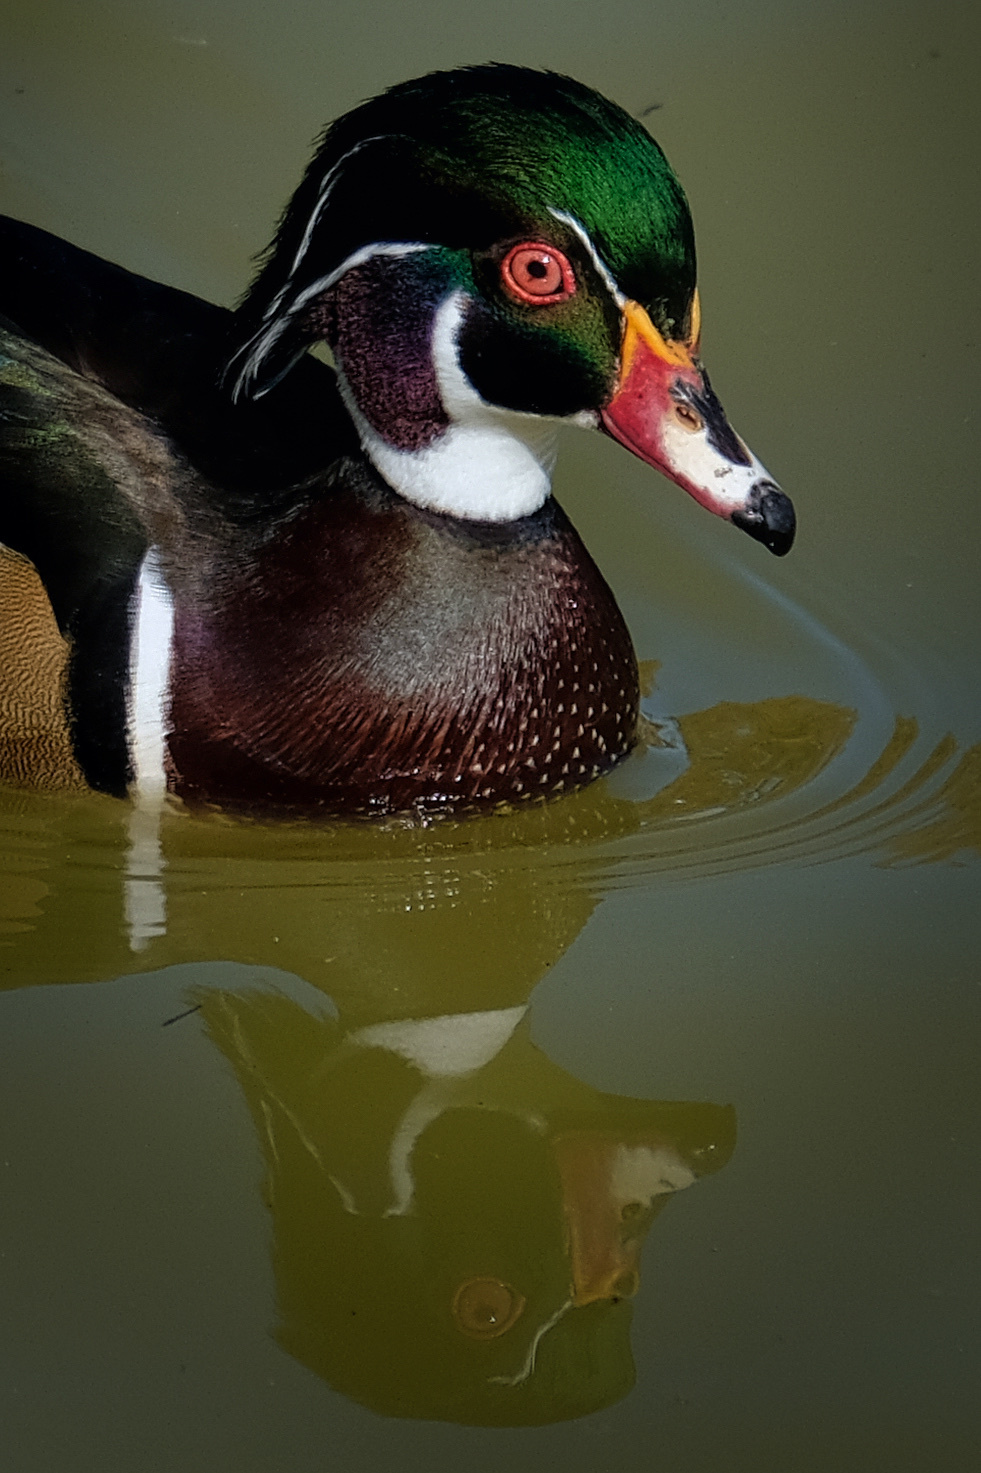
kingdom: Animalia
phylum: Chordata
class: Aves
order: Anseriformes
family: Anatidae
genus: Aix
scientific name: Aix sponsa
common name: Wood duck
